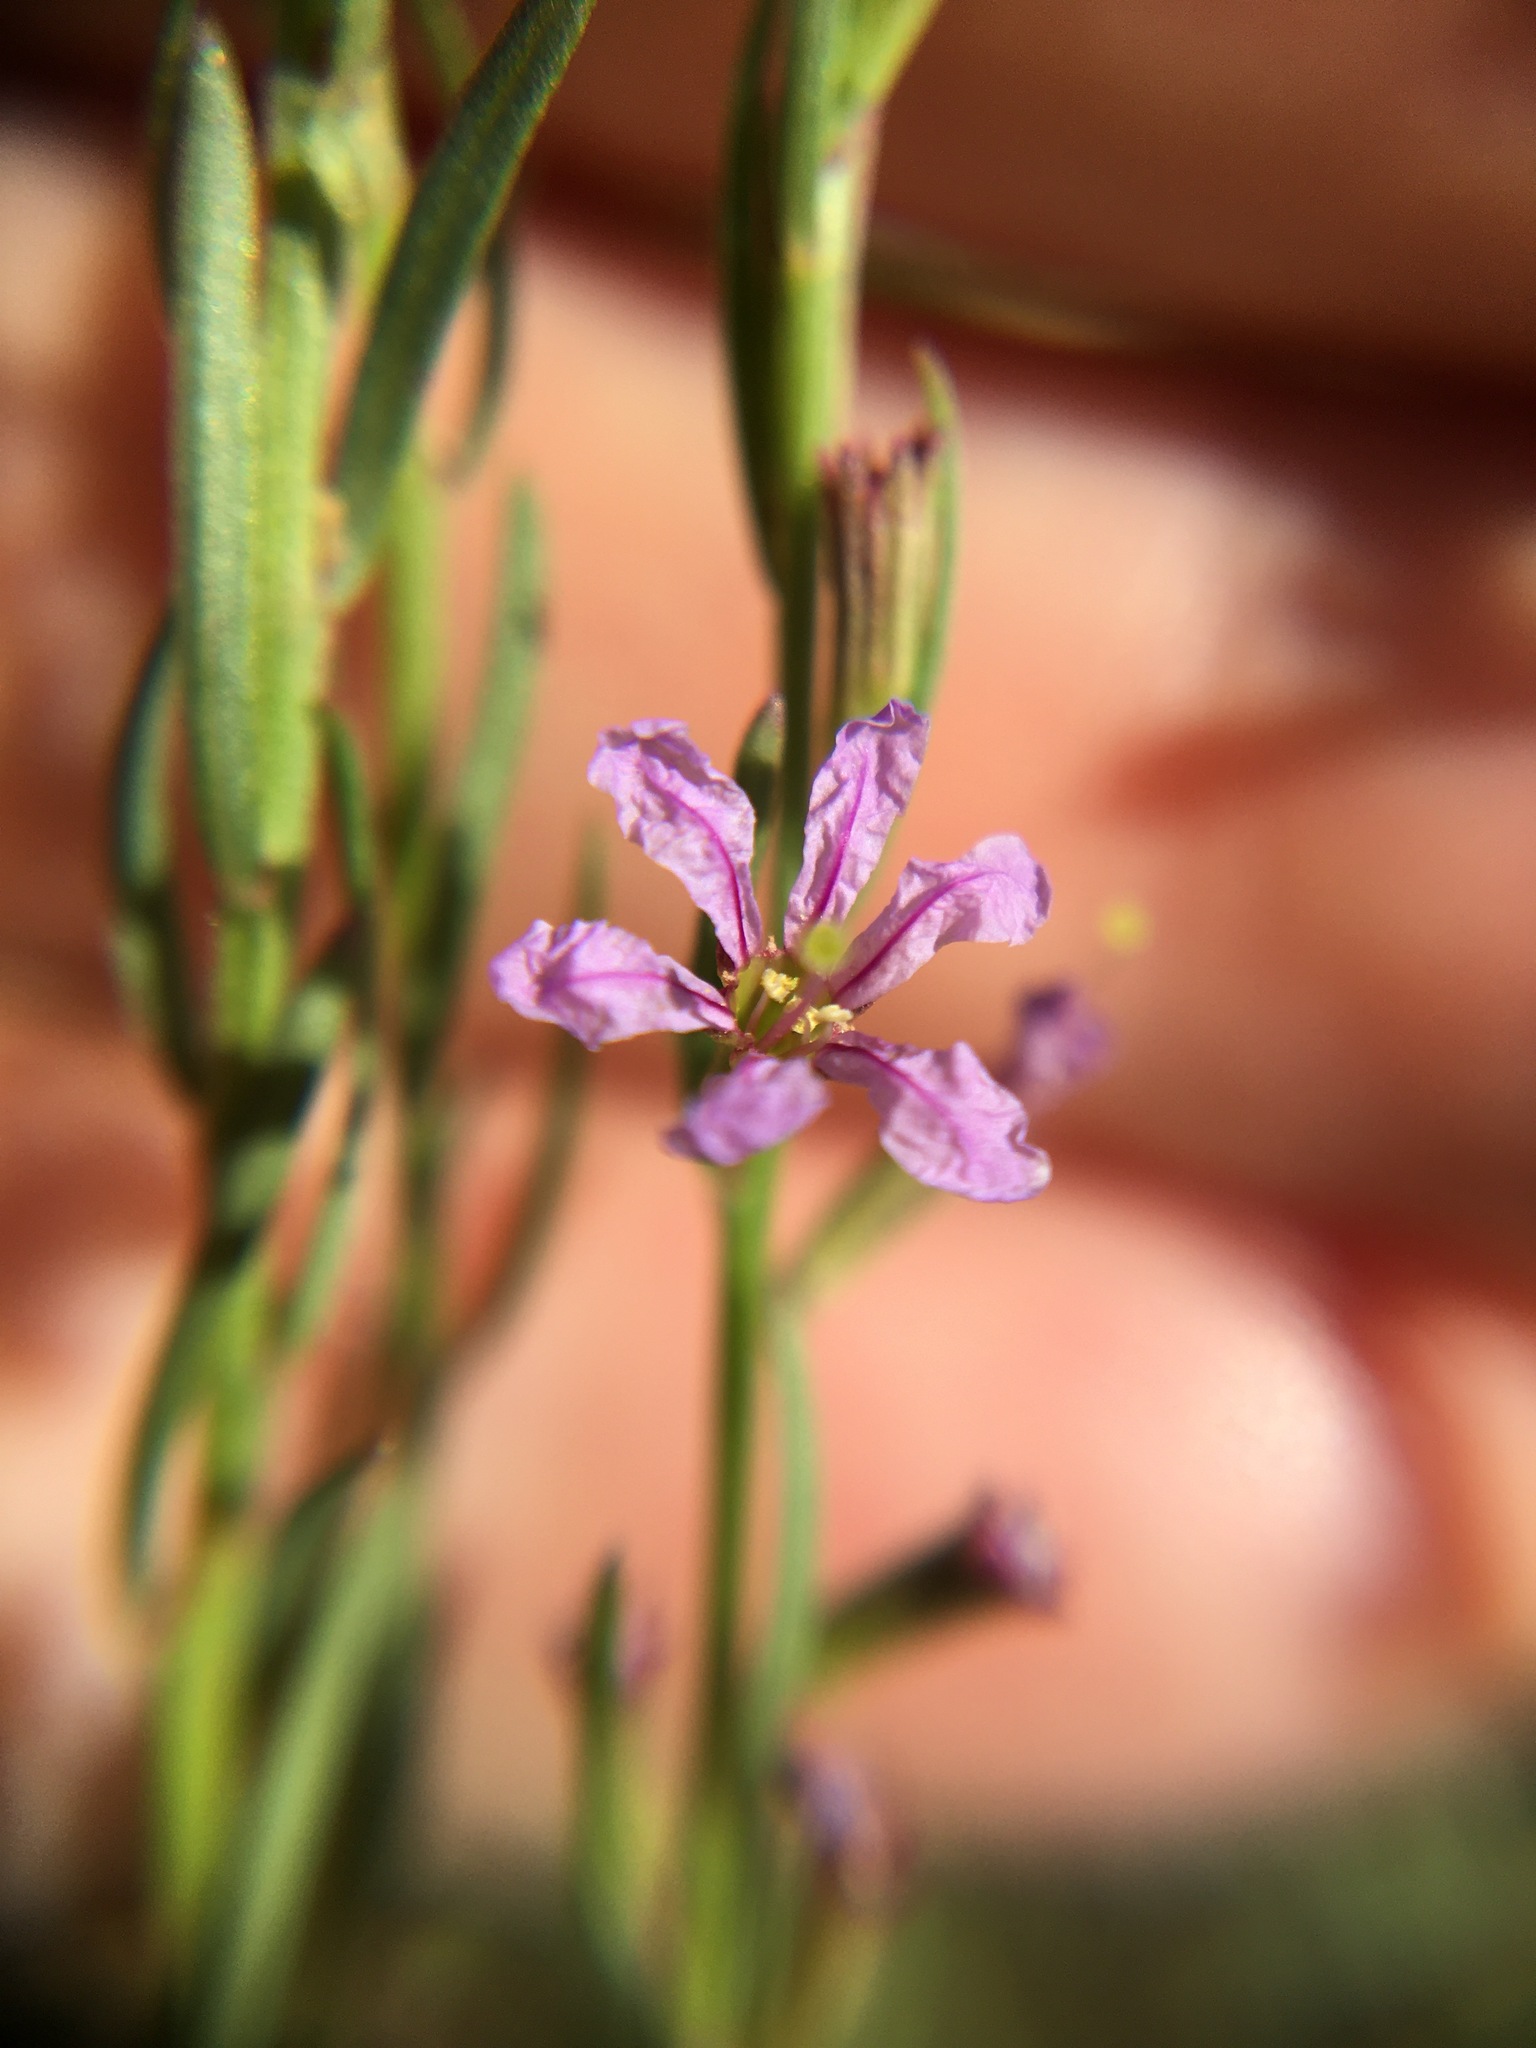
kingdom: Plantae
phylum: Tracheophyta
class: Magnoliopsida
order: Myrtales
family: Lythraceae
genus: Lythrum
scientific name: Lythrum californicum
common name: California loosestrife
